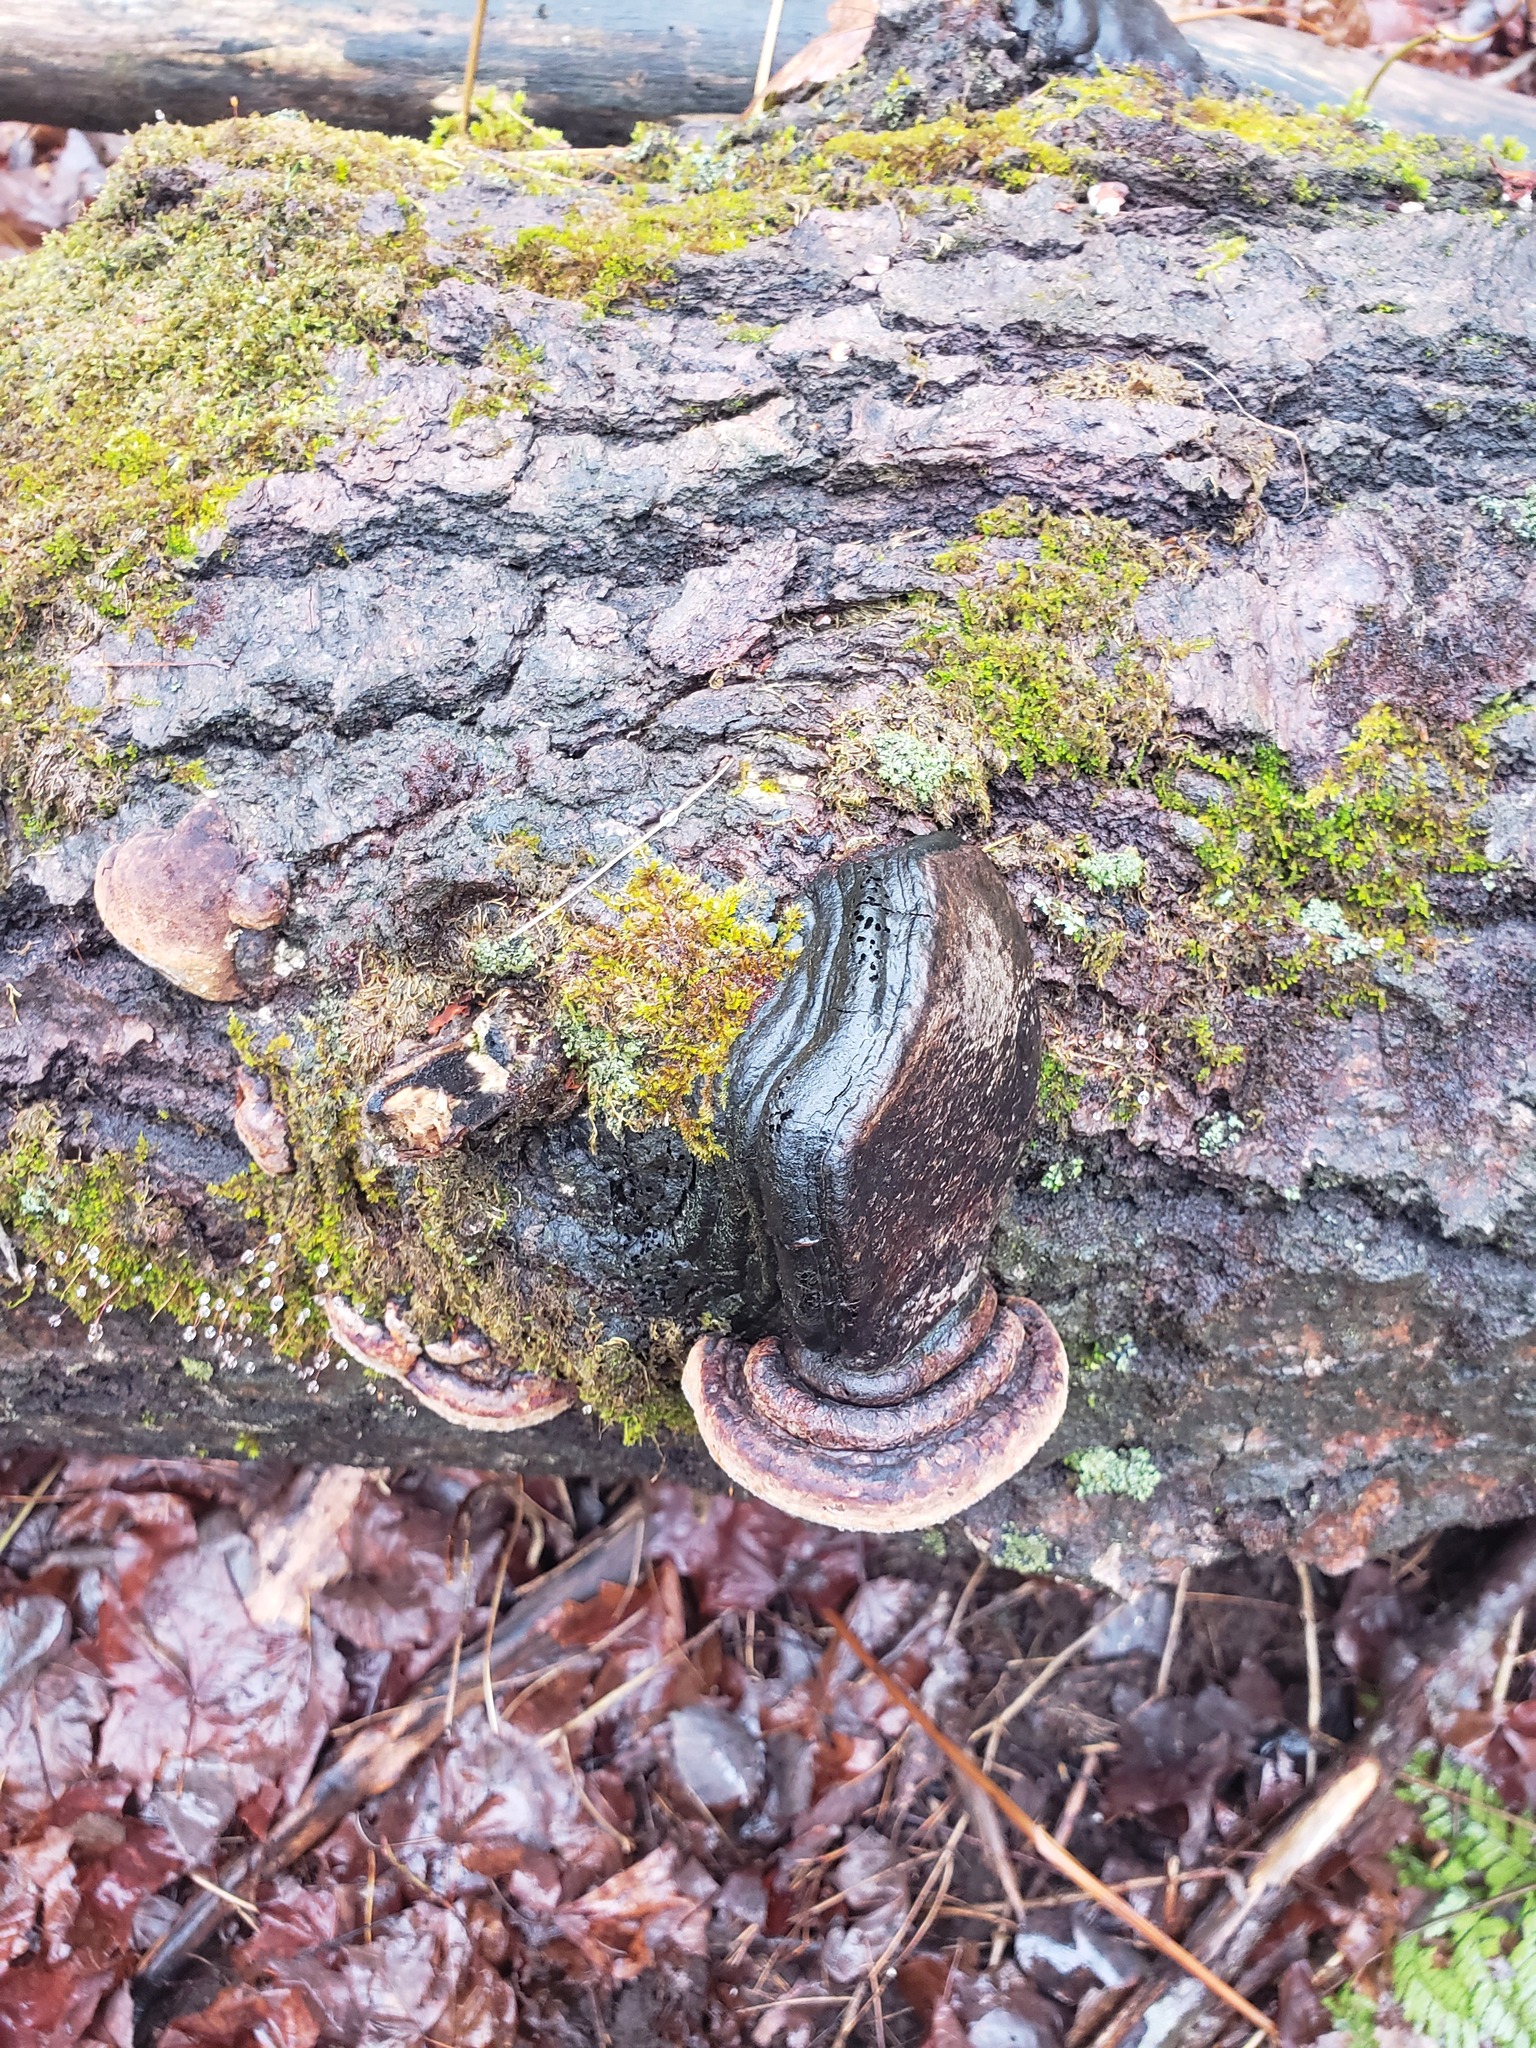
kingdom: Fungi
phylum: Basidiomycota
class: Agaricomycetes
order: Hymenochaetales
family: Hymenochaetaceae
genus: Phellinus
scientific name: Phellinus tremulae
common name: Aspen bracket
